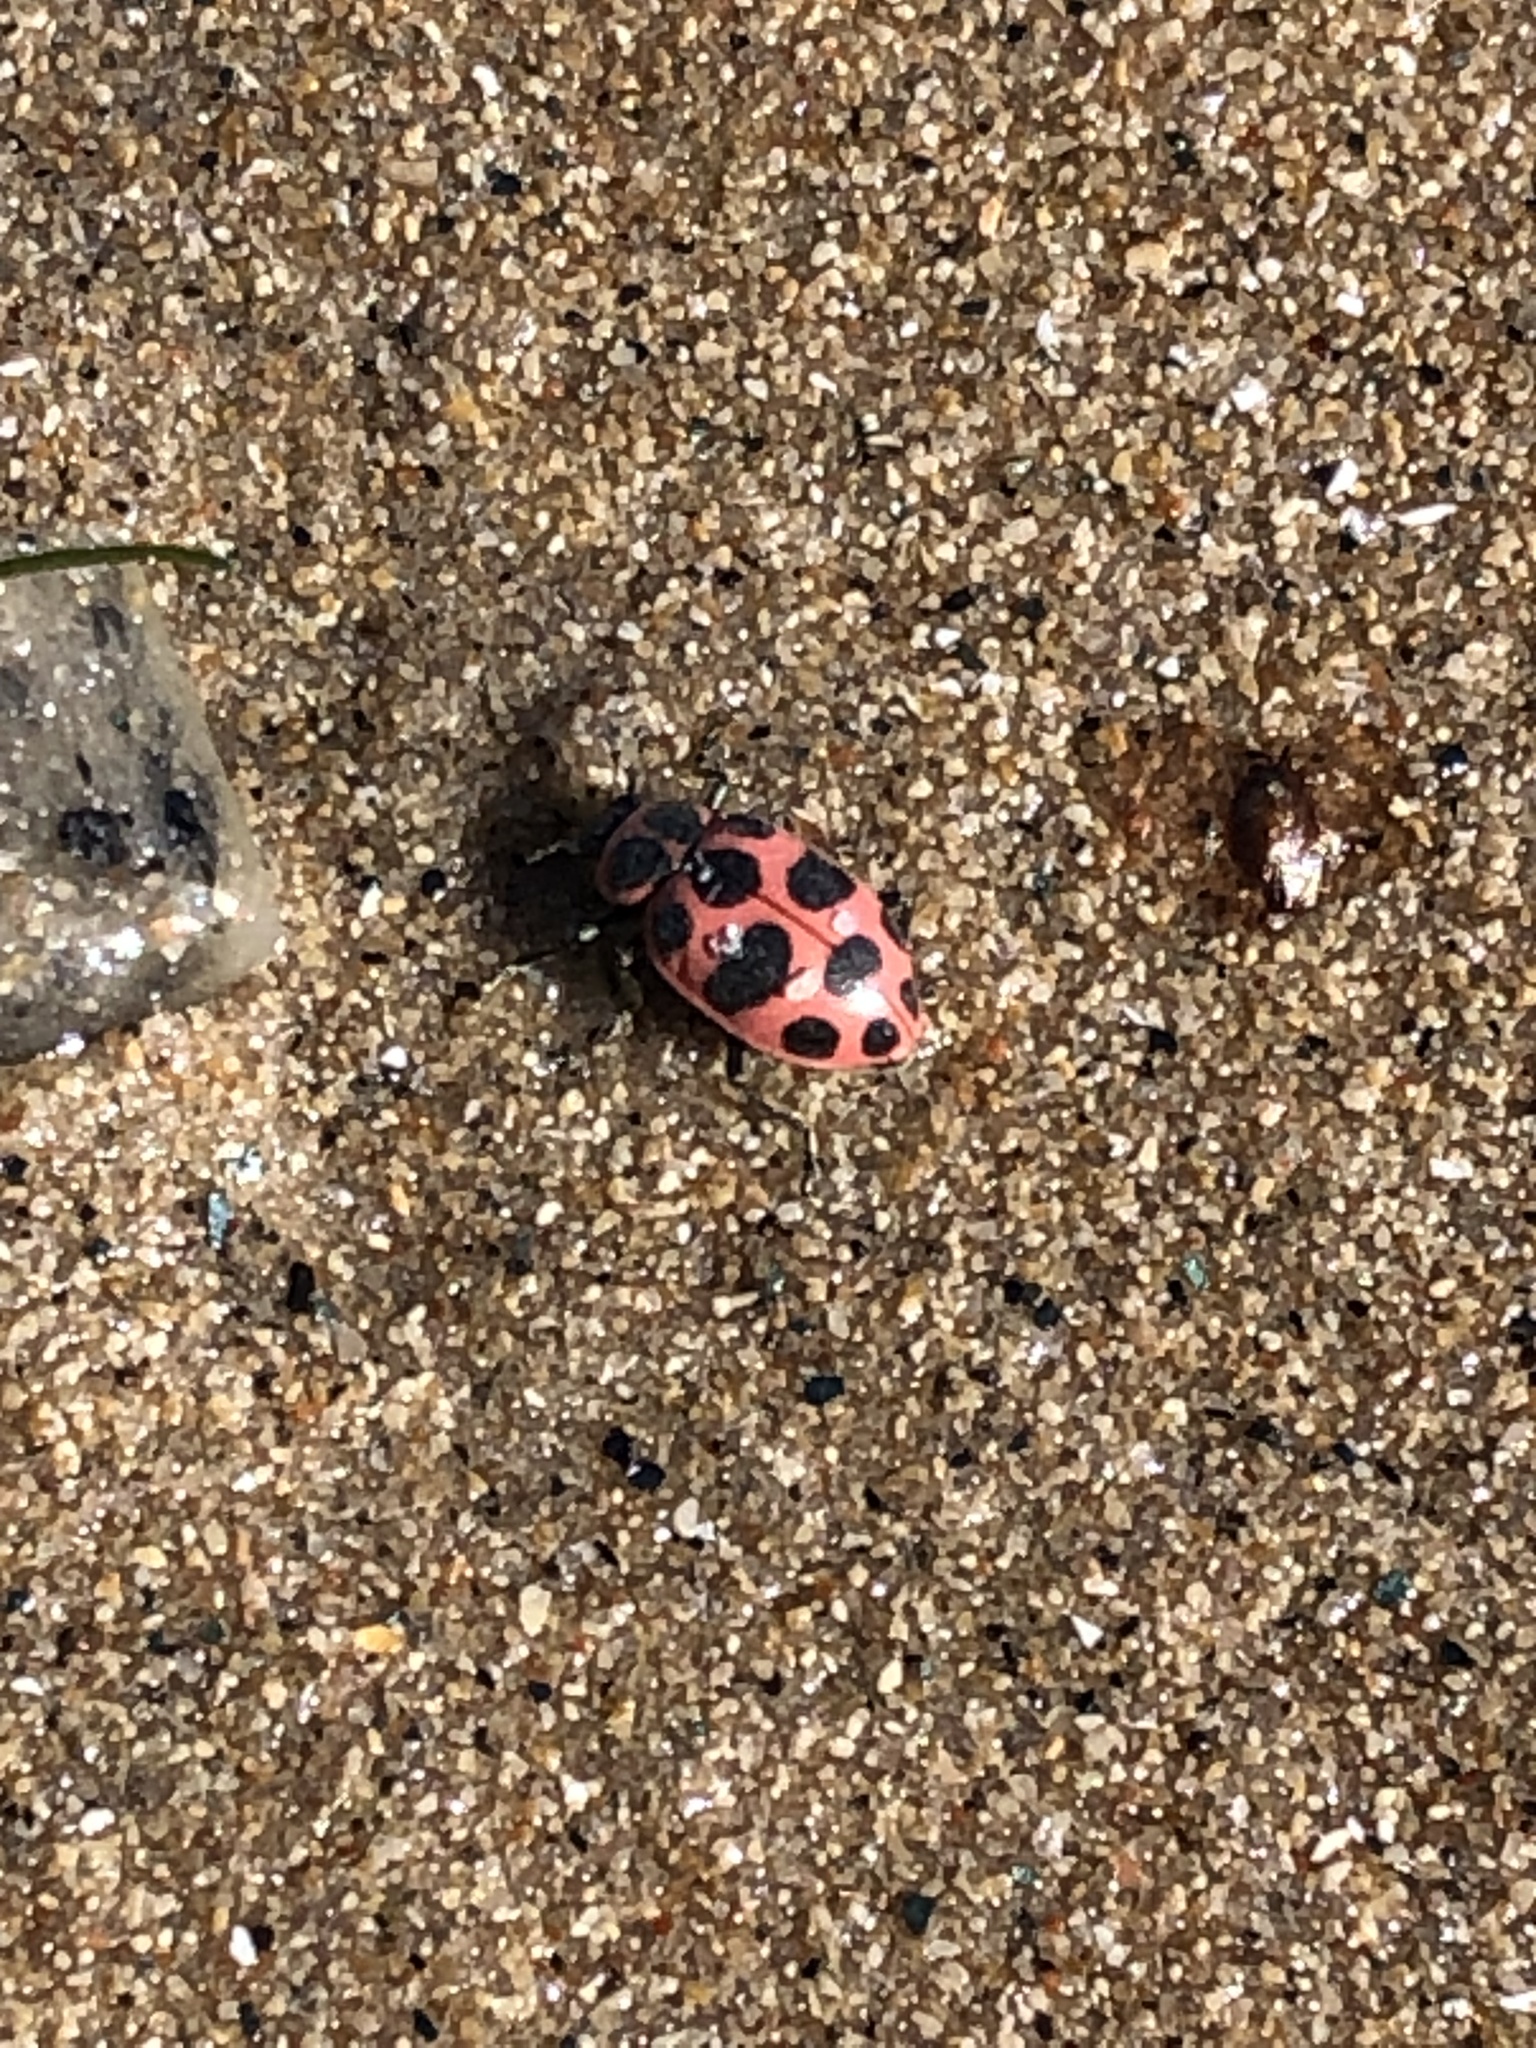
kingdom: Animalia
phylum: Arthropoda
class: Insecta
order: Coleoptera
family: Coccinellidae
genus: Coleomegilla
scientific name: Coleomegilla maculata
